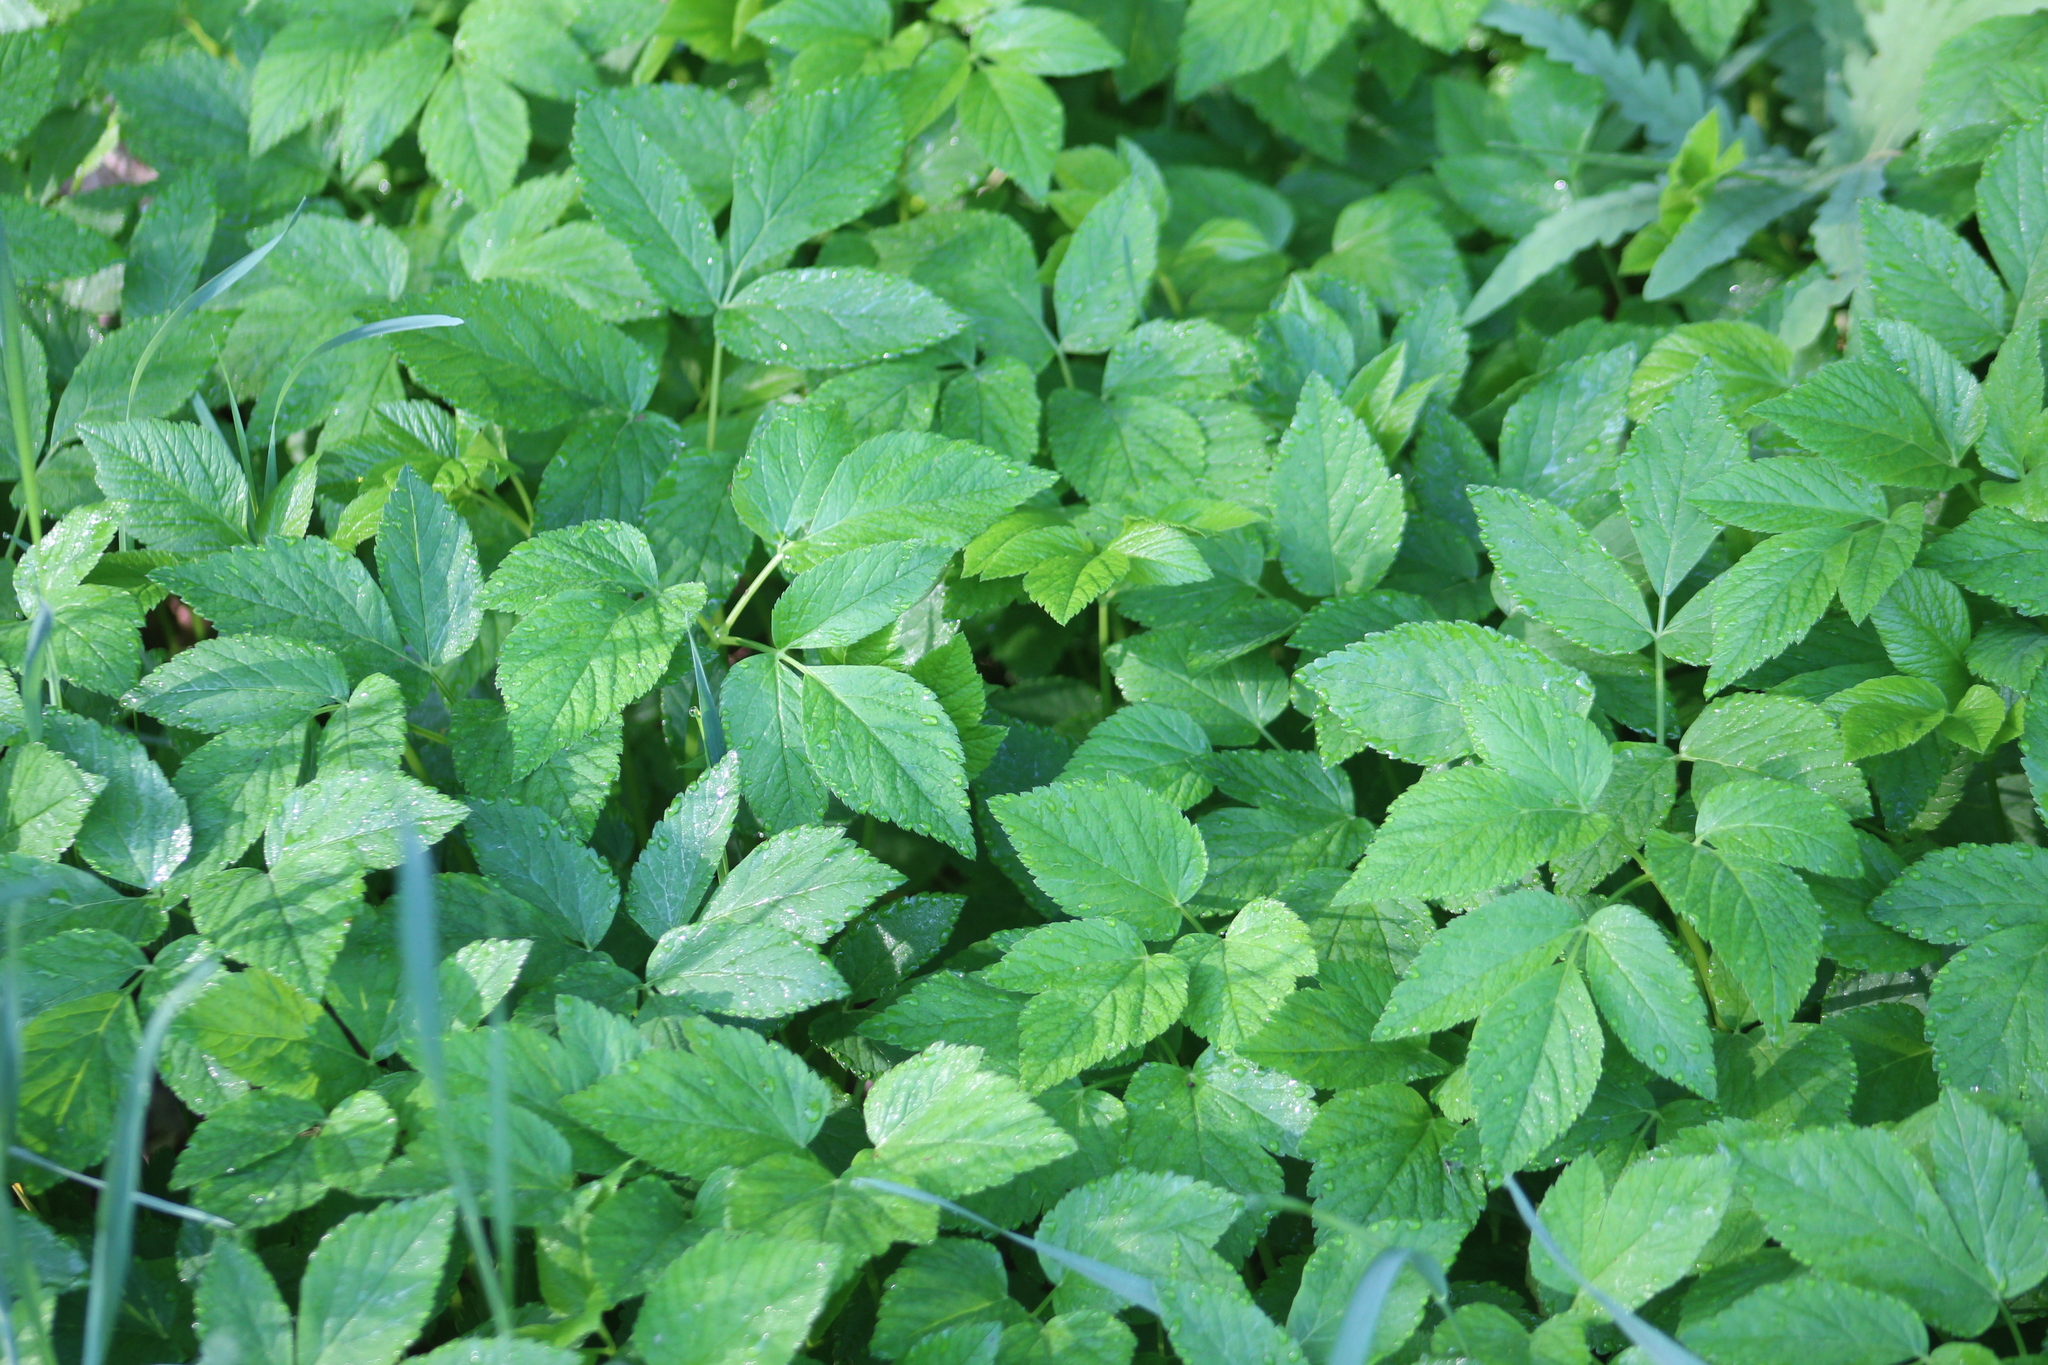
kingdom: Plantae
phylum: Tracheophyta
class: Magnoliopsida
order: Apiales
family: Apiaceae
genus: Aegopodium
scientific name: Aegopodium podagraria
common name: Ground-elder
